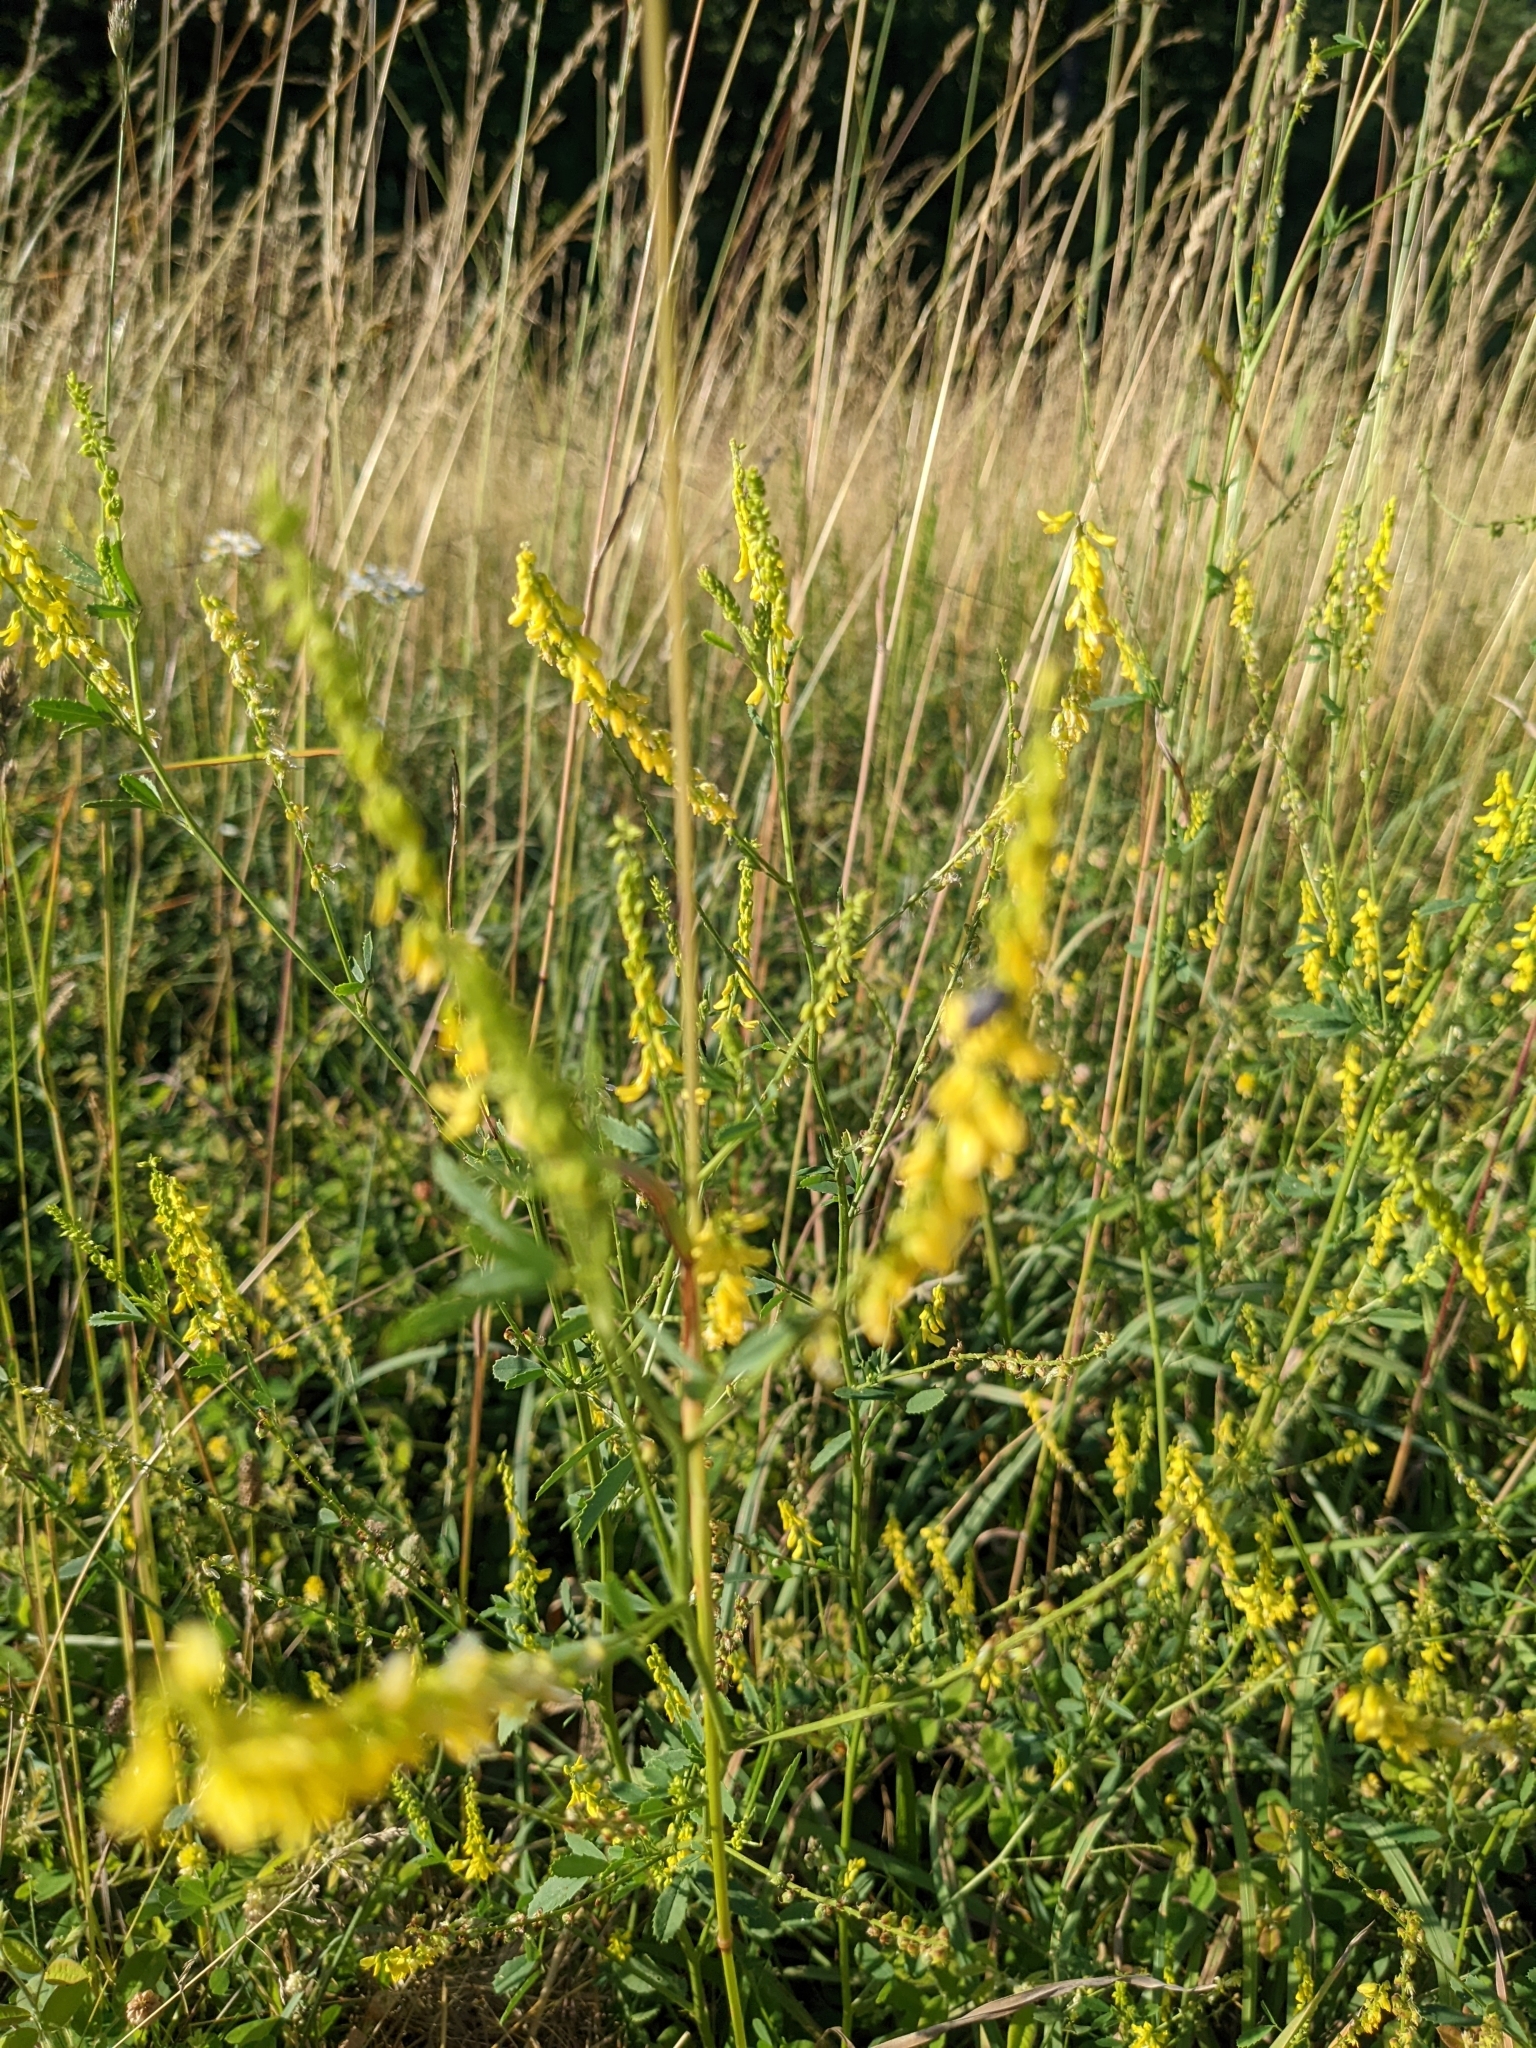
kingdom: Plantae
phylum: Tracheophyta
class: Magnoliopsida
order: Fabales
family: Fabaceae
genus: Melilotus
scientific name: Melilotus officinalis
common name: Sweetclover
